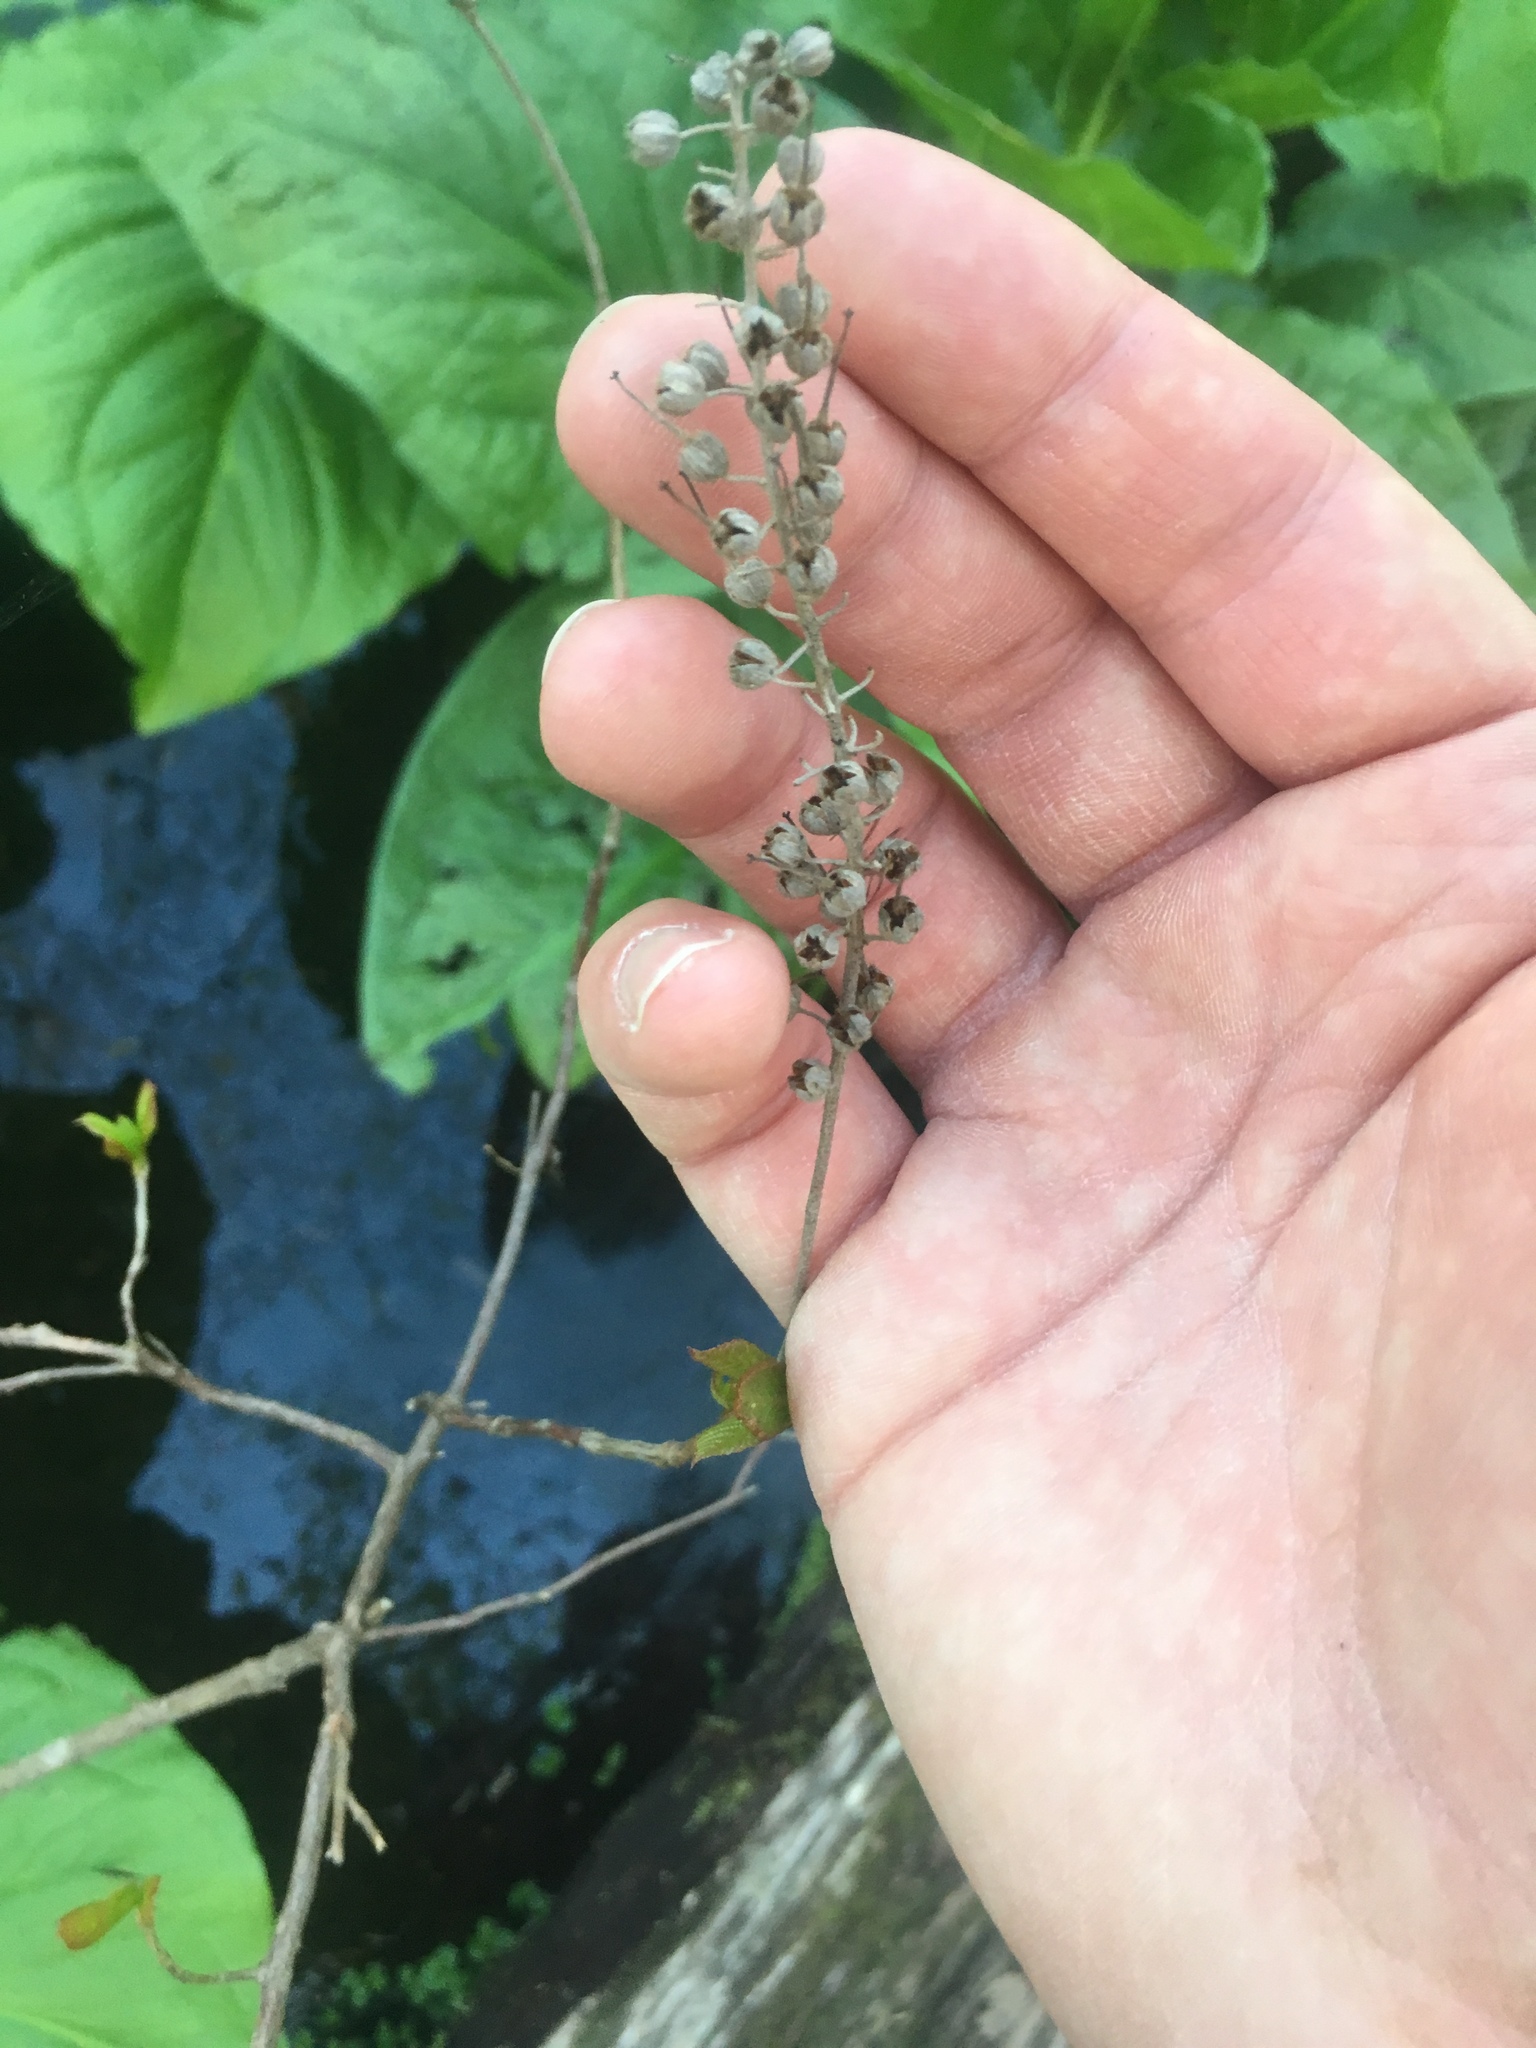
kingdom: Plantae
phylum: Tracheophyta
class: Magnoliopsida
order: Ericales
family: Clethraceae
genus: Clethra
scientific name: Clethra alnifolia
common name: Sweet pepperbush
